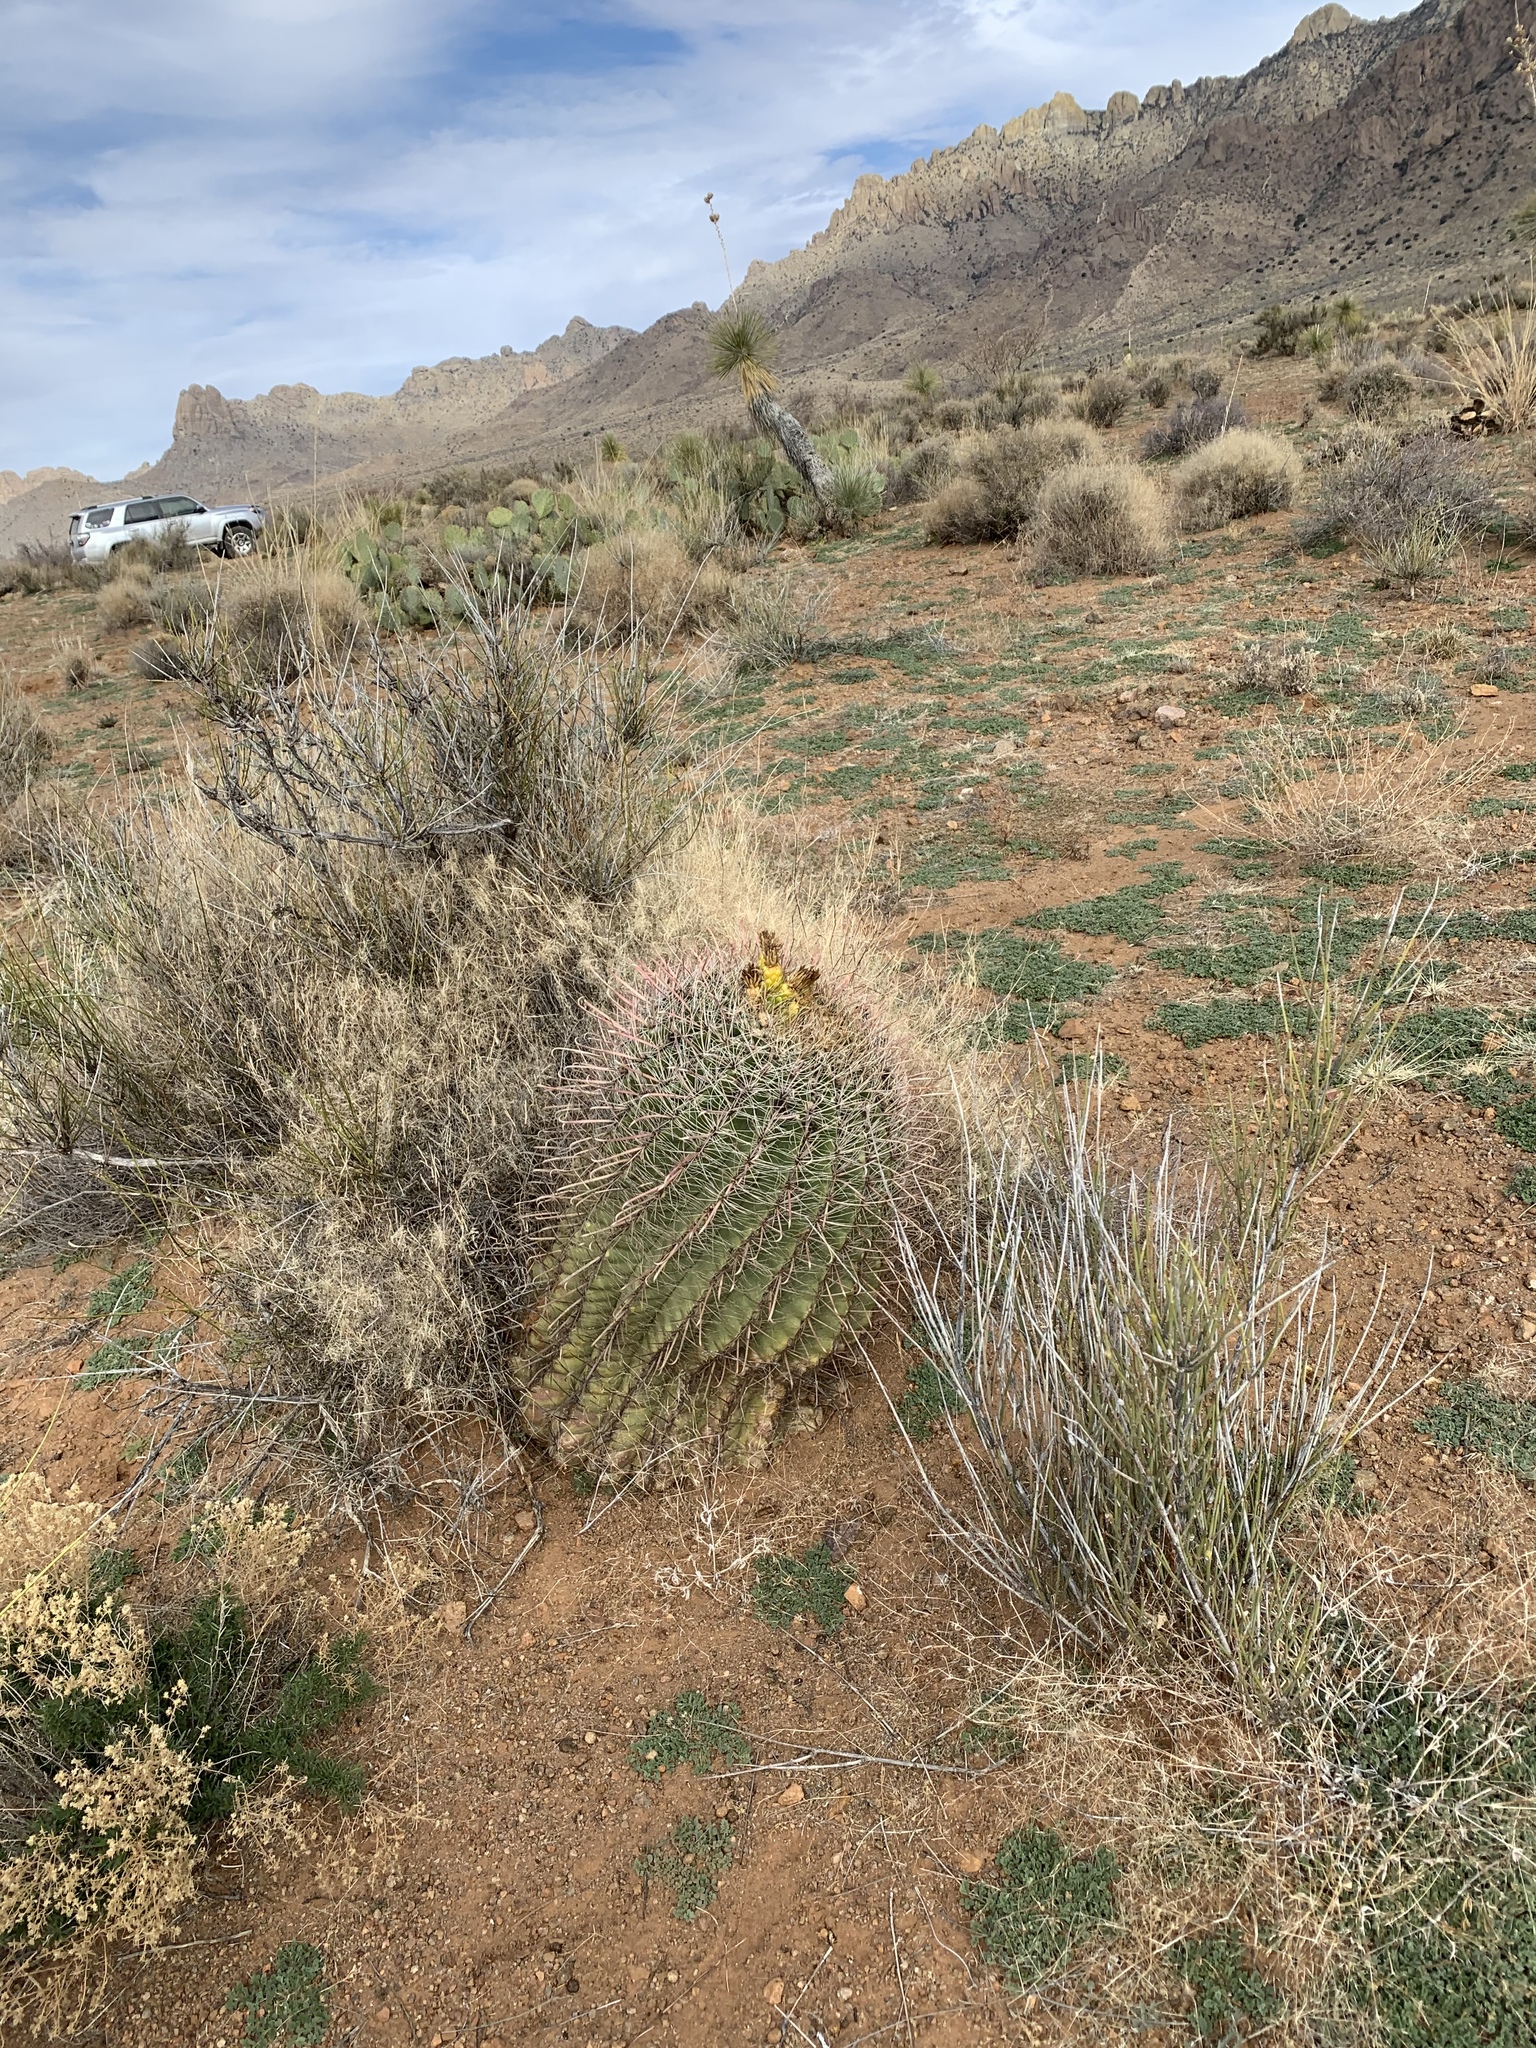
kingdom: Plantae
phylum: Tracheophyta
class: Magnoliopsida
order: Caryophyllales
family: Cactaceae
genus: Ferocactus
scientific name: Ferocactus wislizeni
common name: Candy barrel cactus
